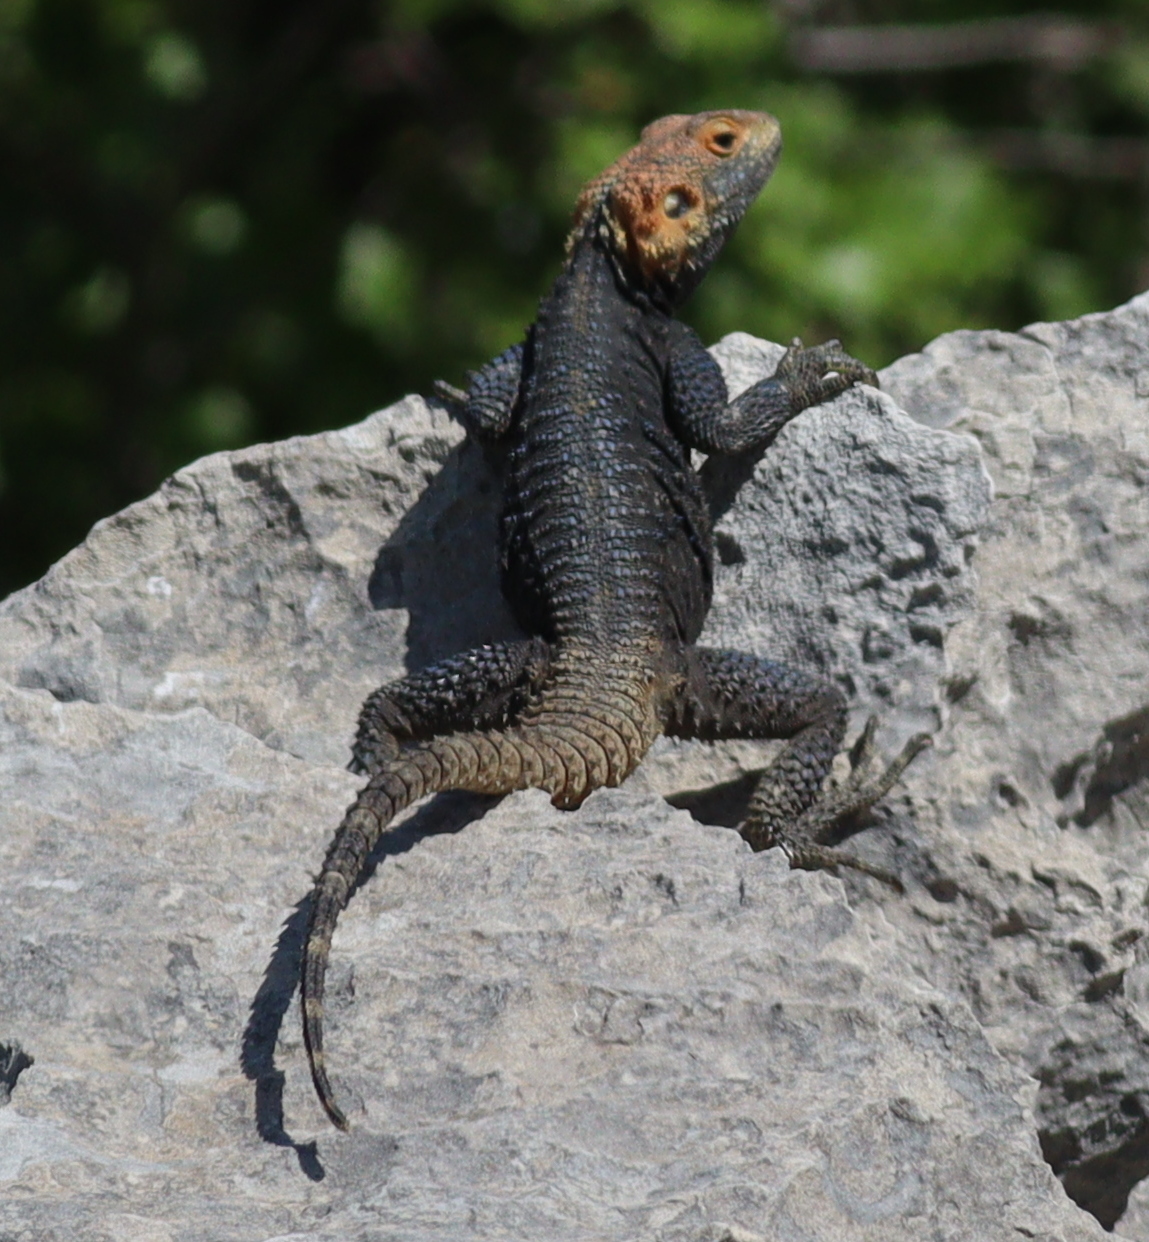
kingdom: Animalia
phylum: Chordata
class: Squamata
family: Agamidae
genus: Stellagama
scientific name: Stellagama stellio
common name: Starred agama
